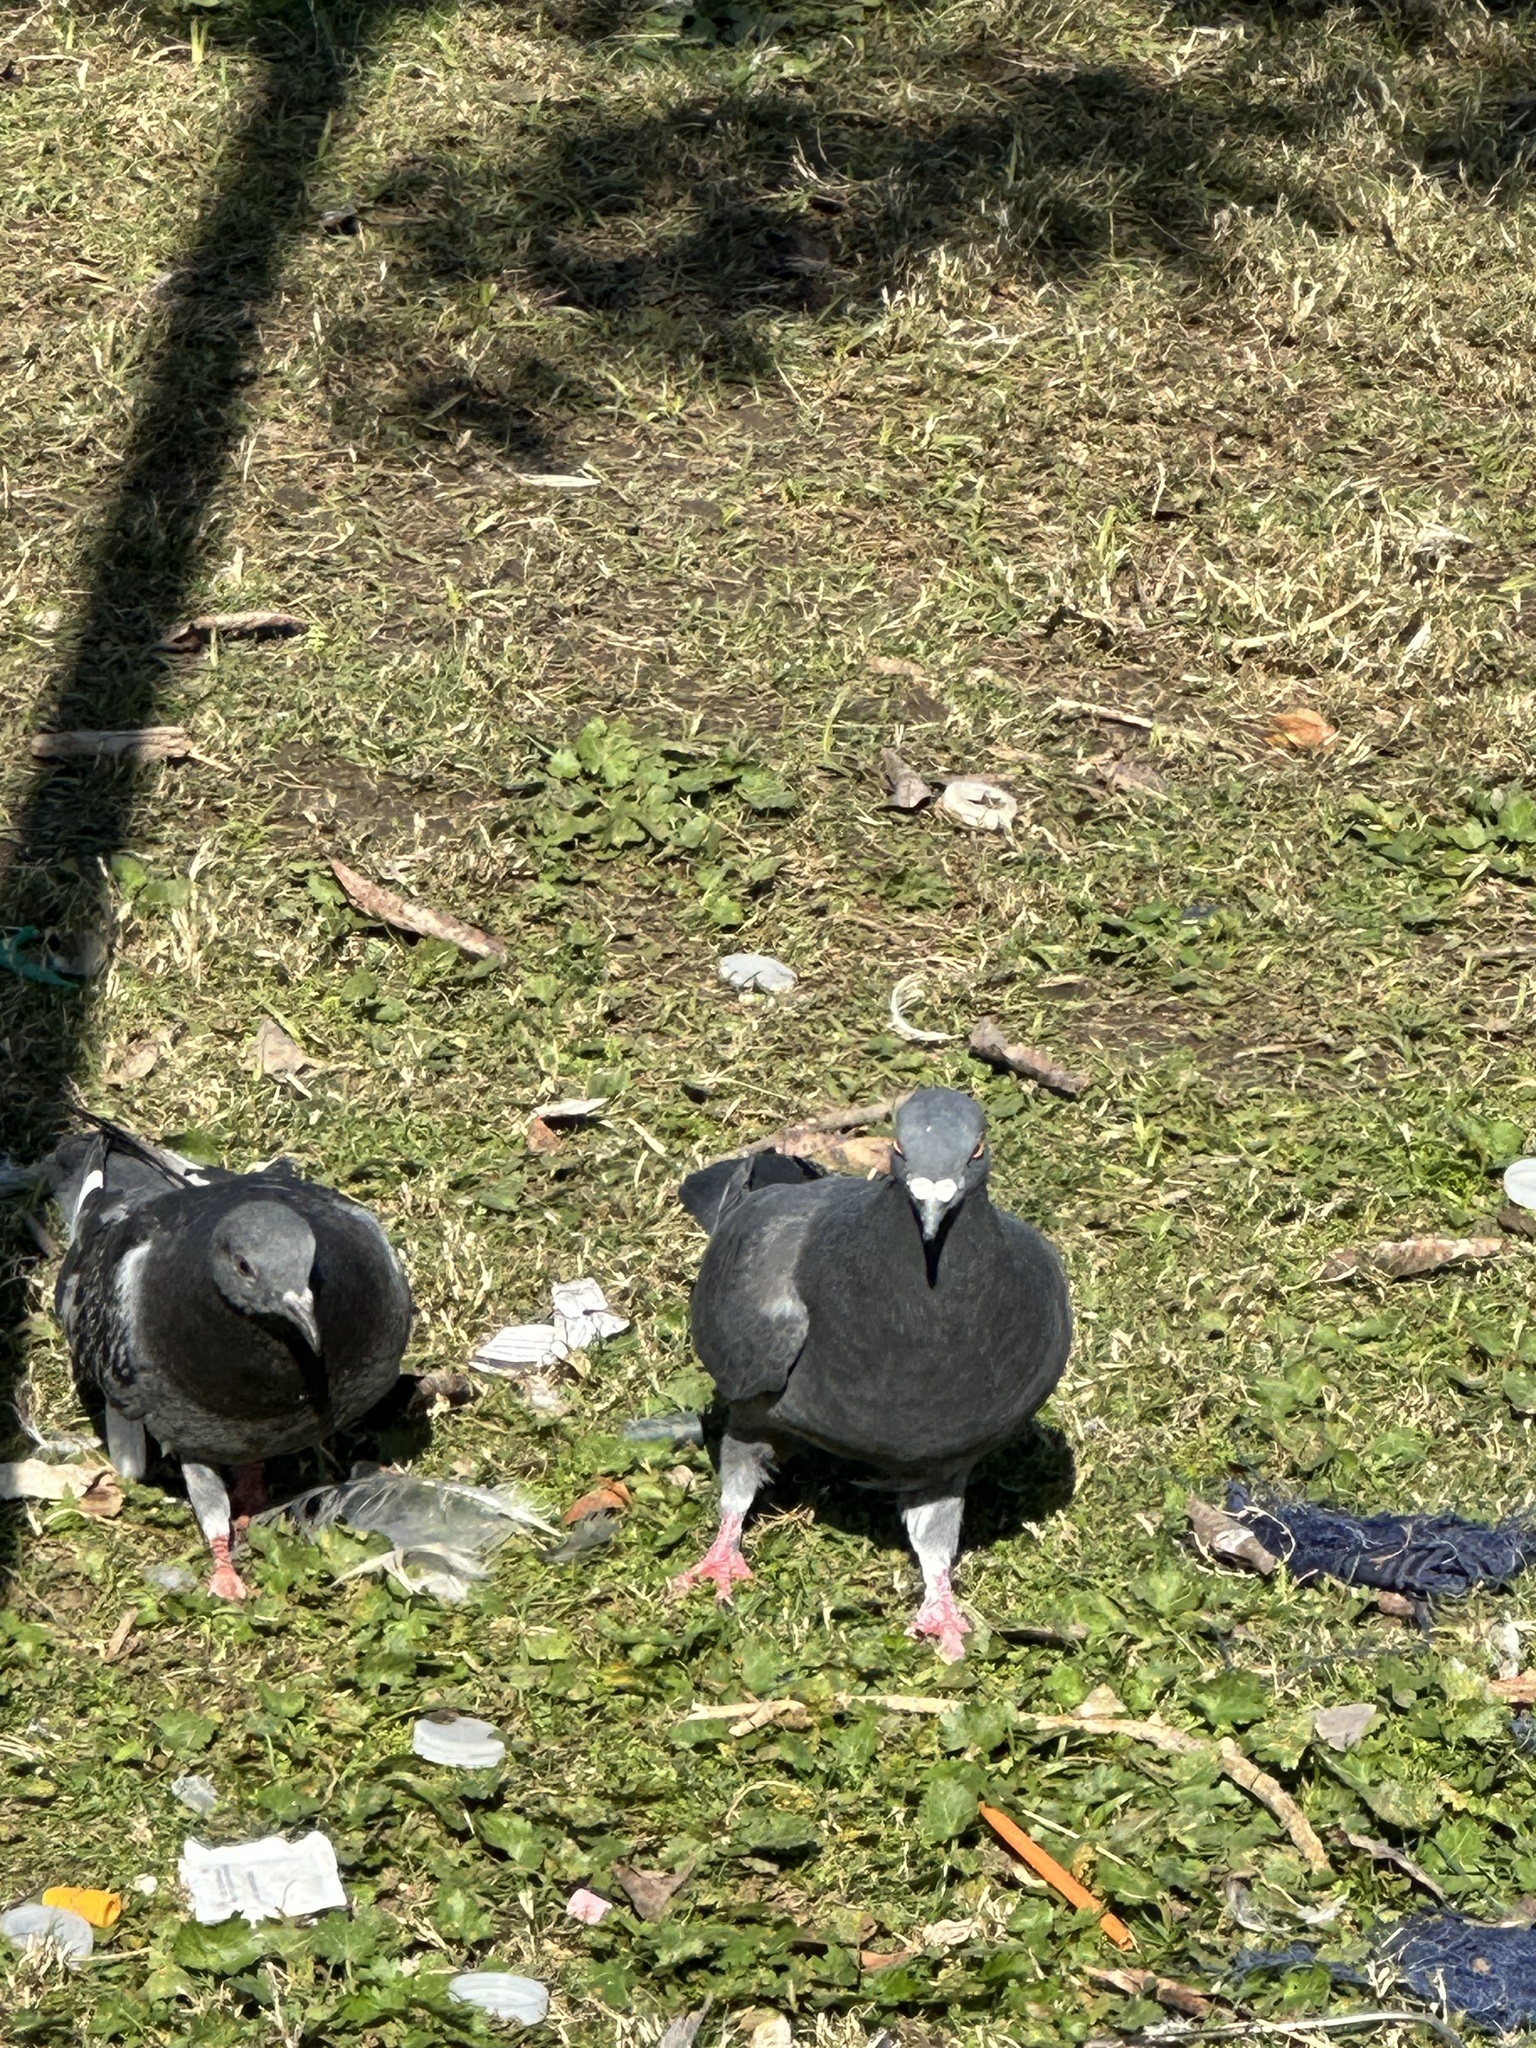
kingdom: Animalia
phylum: Chordata
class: Aves
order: Columbiformes
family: Columbidae
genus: Columba
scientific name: Columba livia
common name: Rock pigeon
